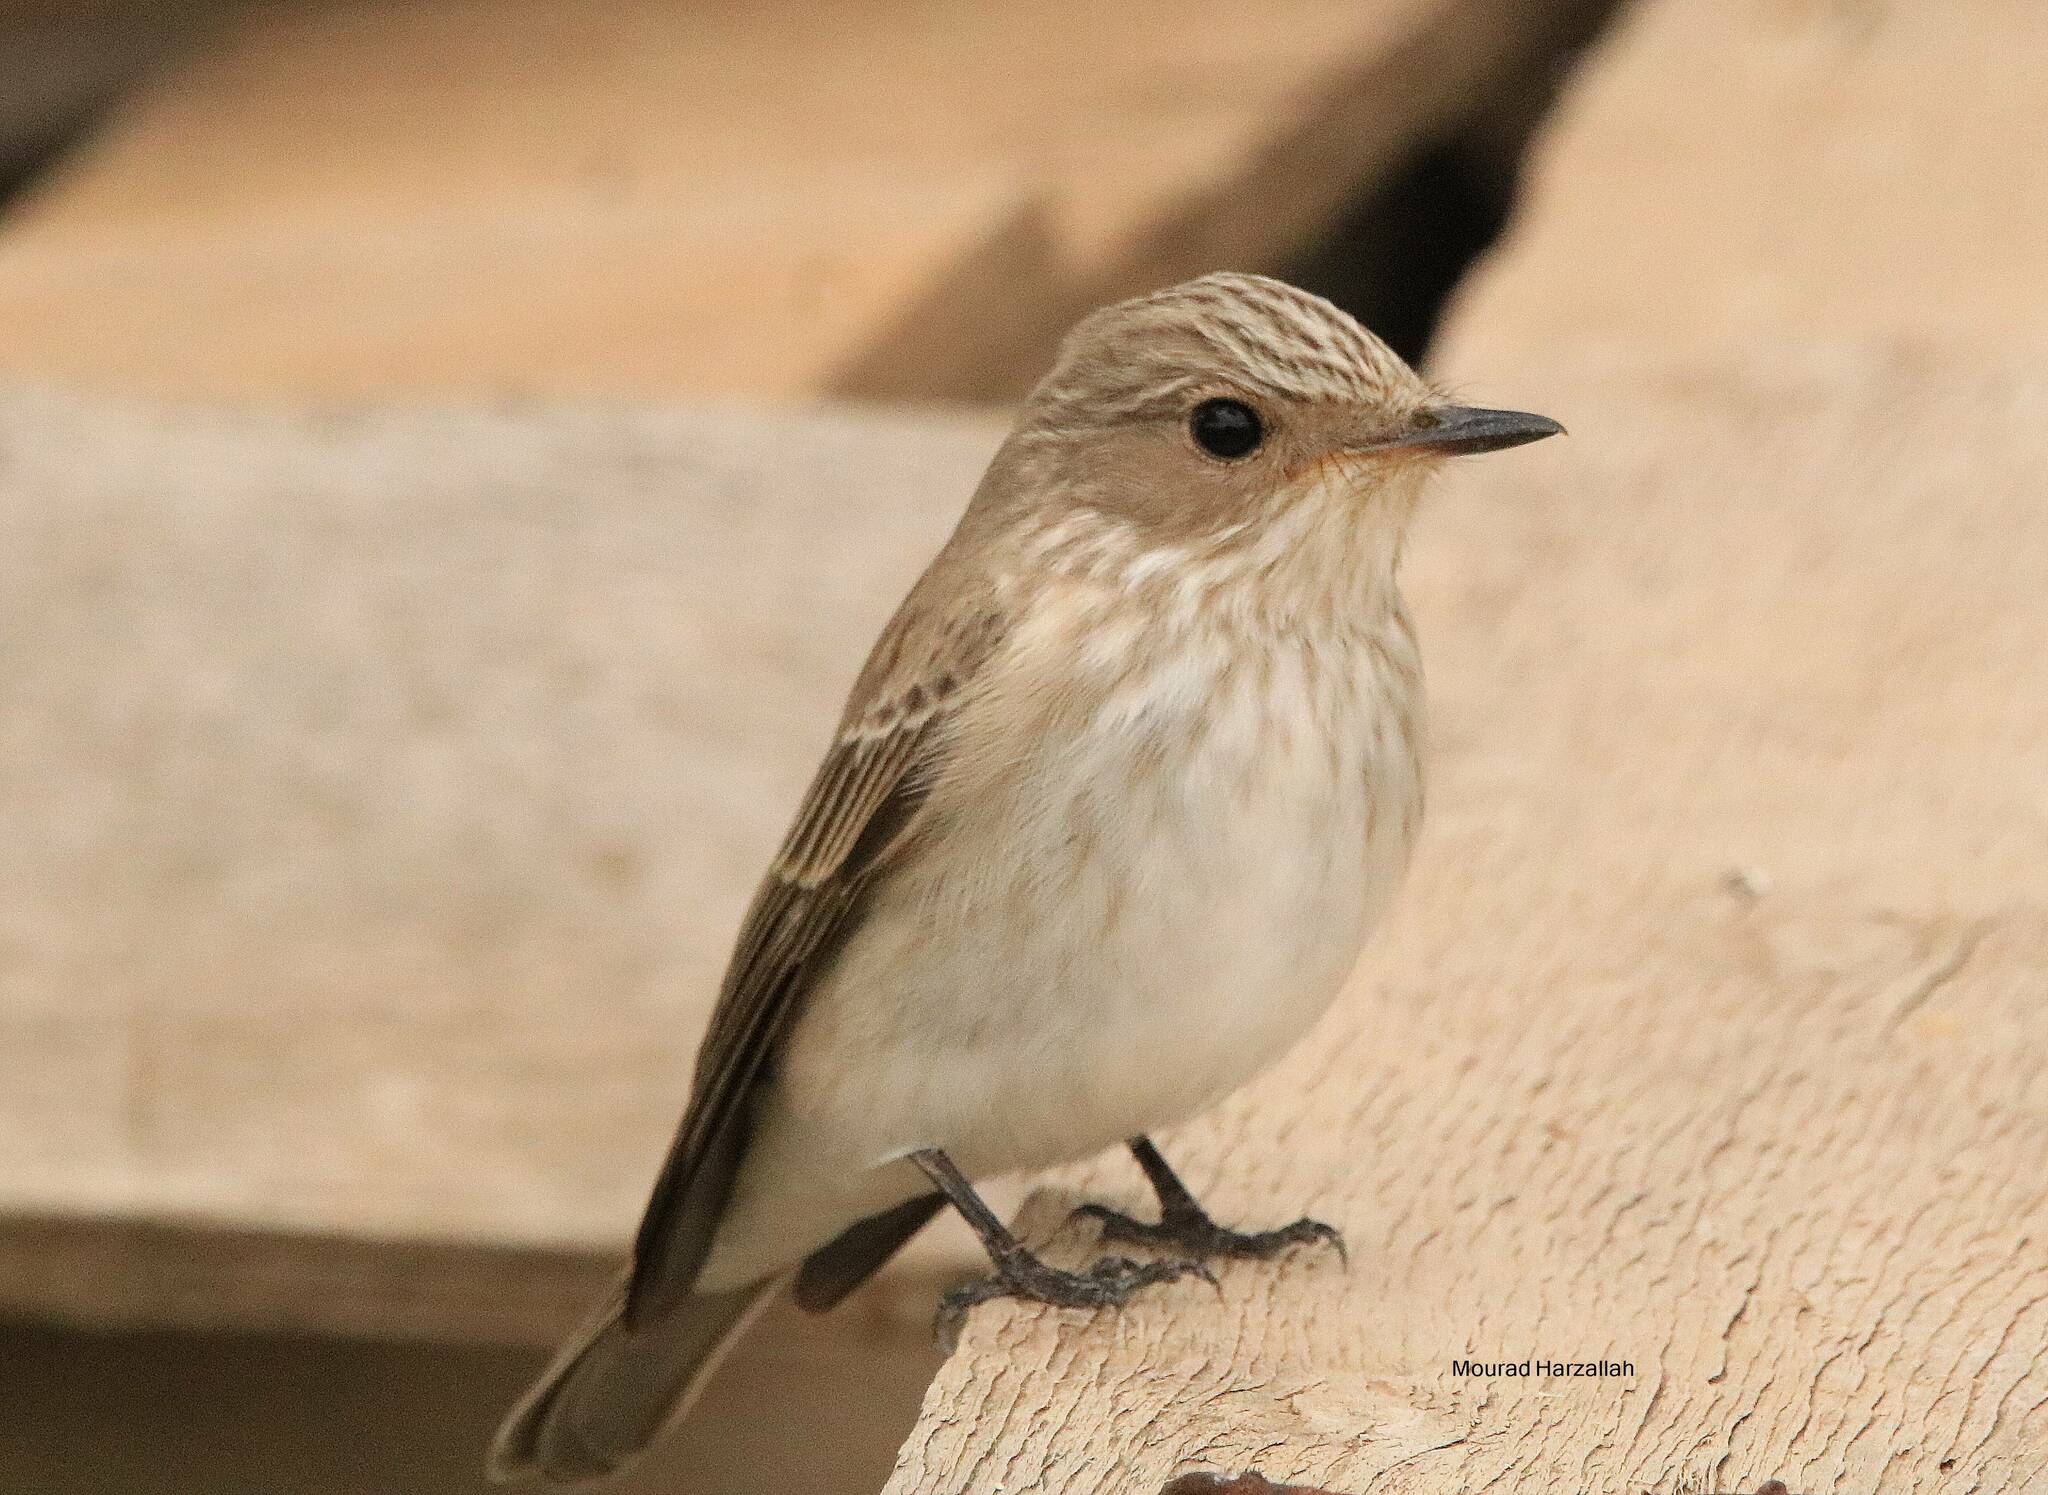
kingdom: Animalia
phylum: Chordata
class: Aves
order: Passeriformes
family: Muscicapidae
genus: Muscicapa
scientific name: Muscicapa striata
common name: Spotted flycatcher
